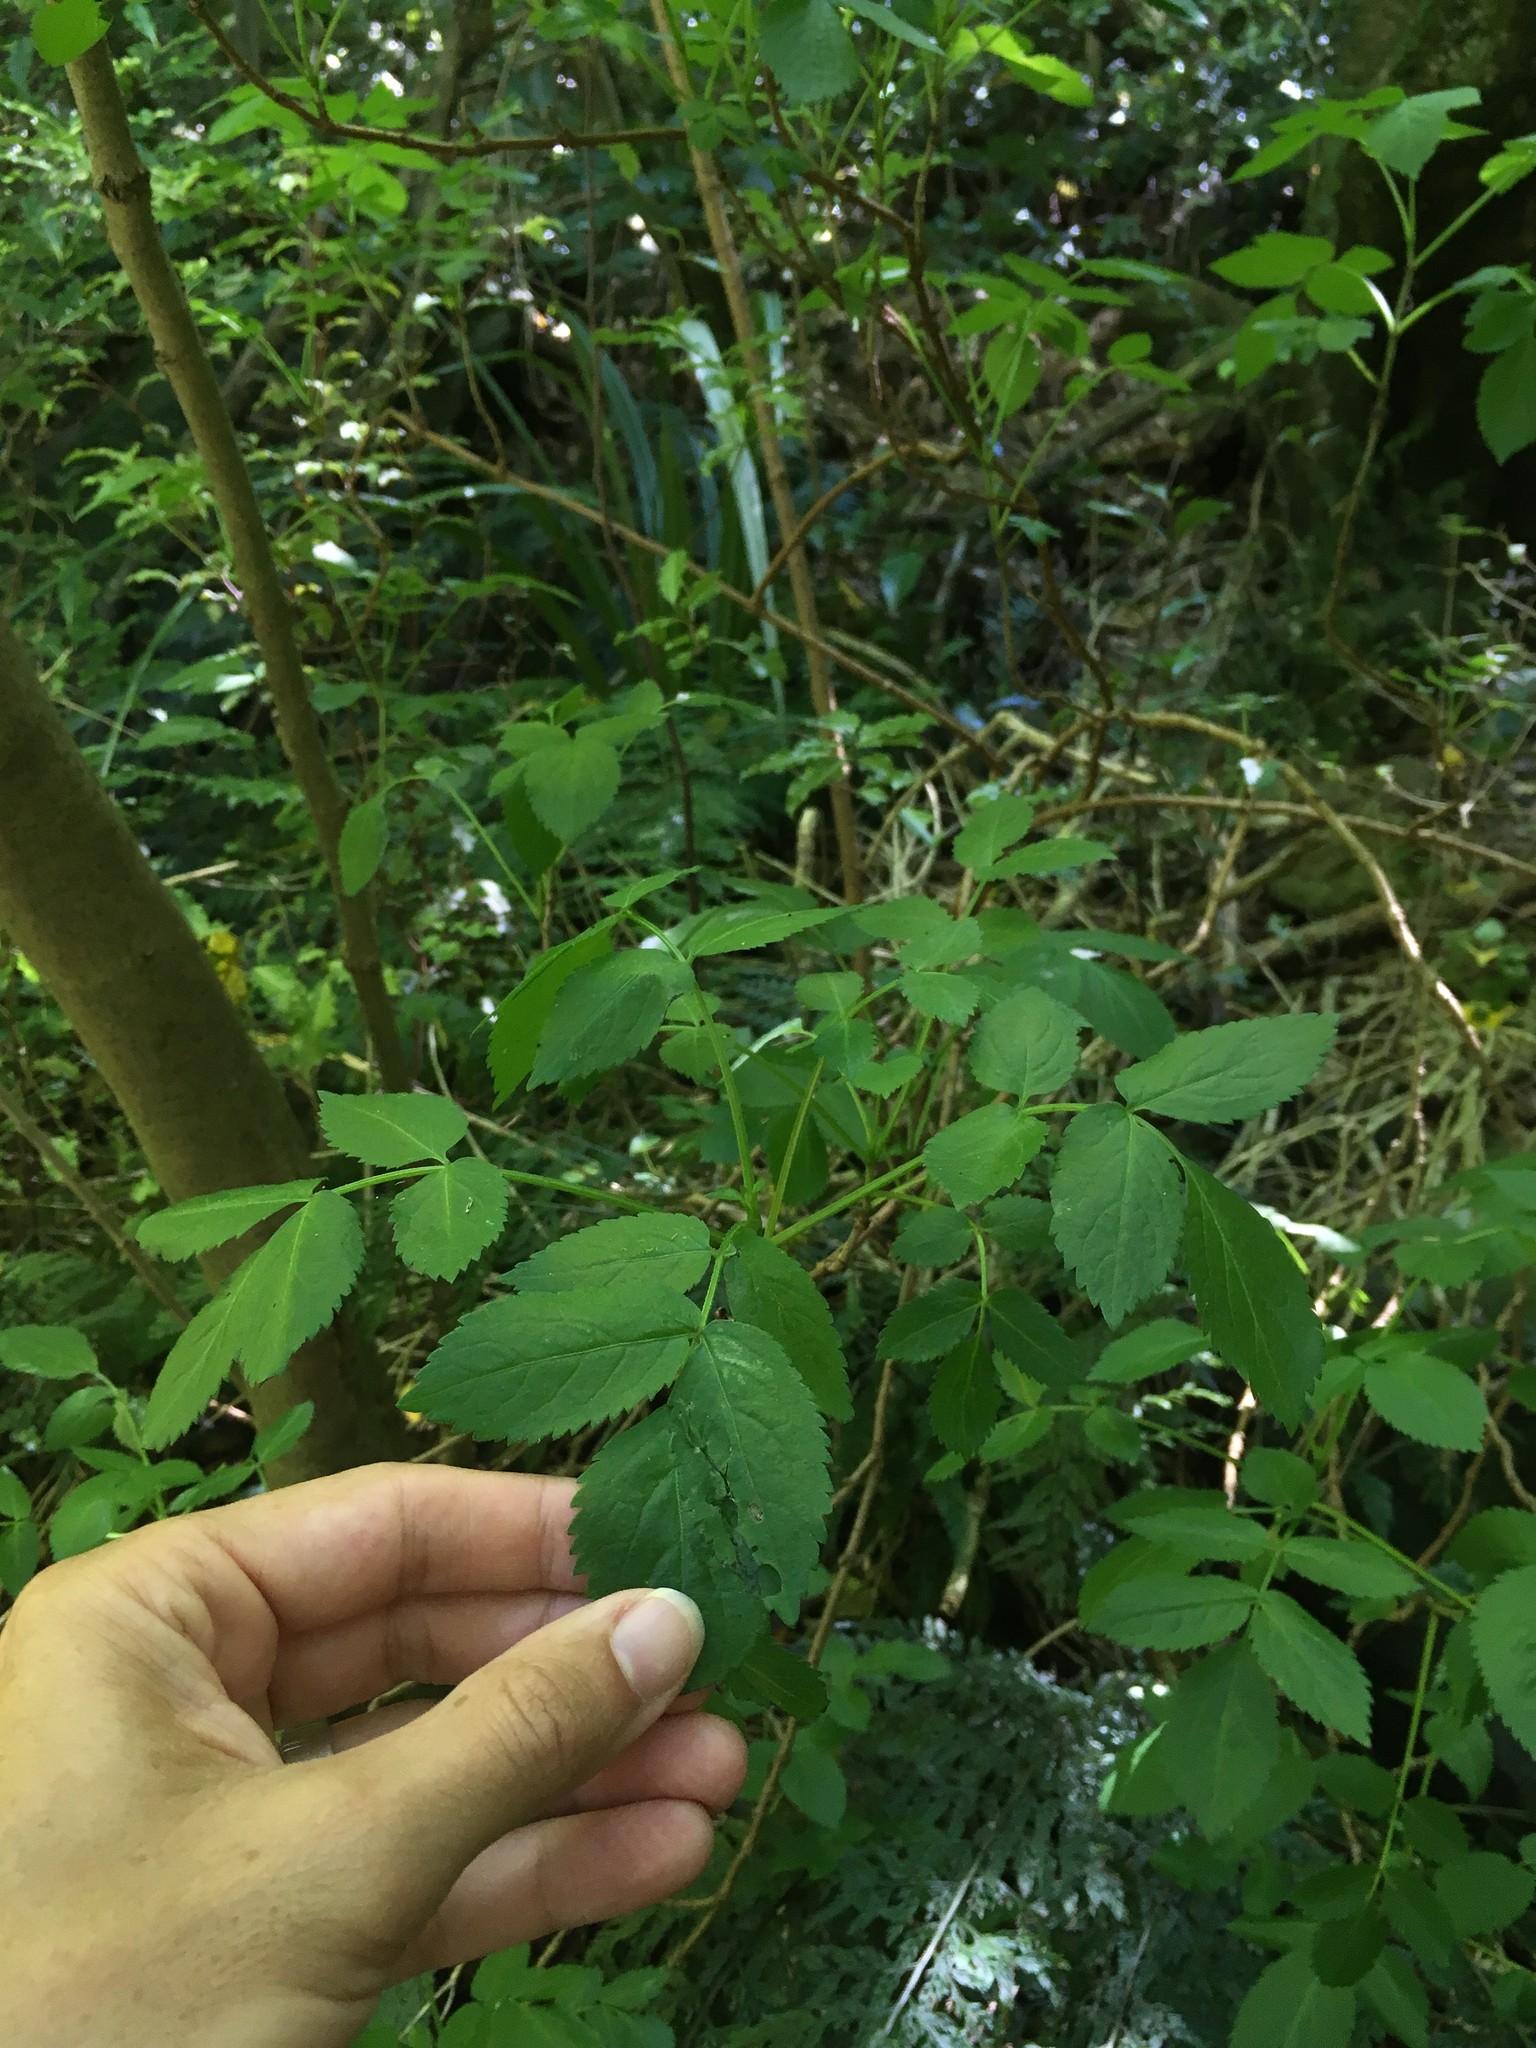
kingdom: Plantae
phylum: Tracheophyta
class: Magnoliopsida
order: Dipsacales
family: Viburnaceae
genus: Sambucus
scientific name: Sambucus nigra
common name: Elder
